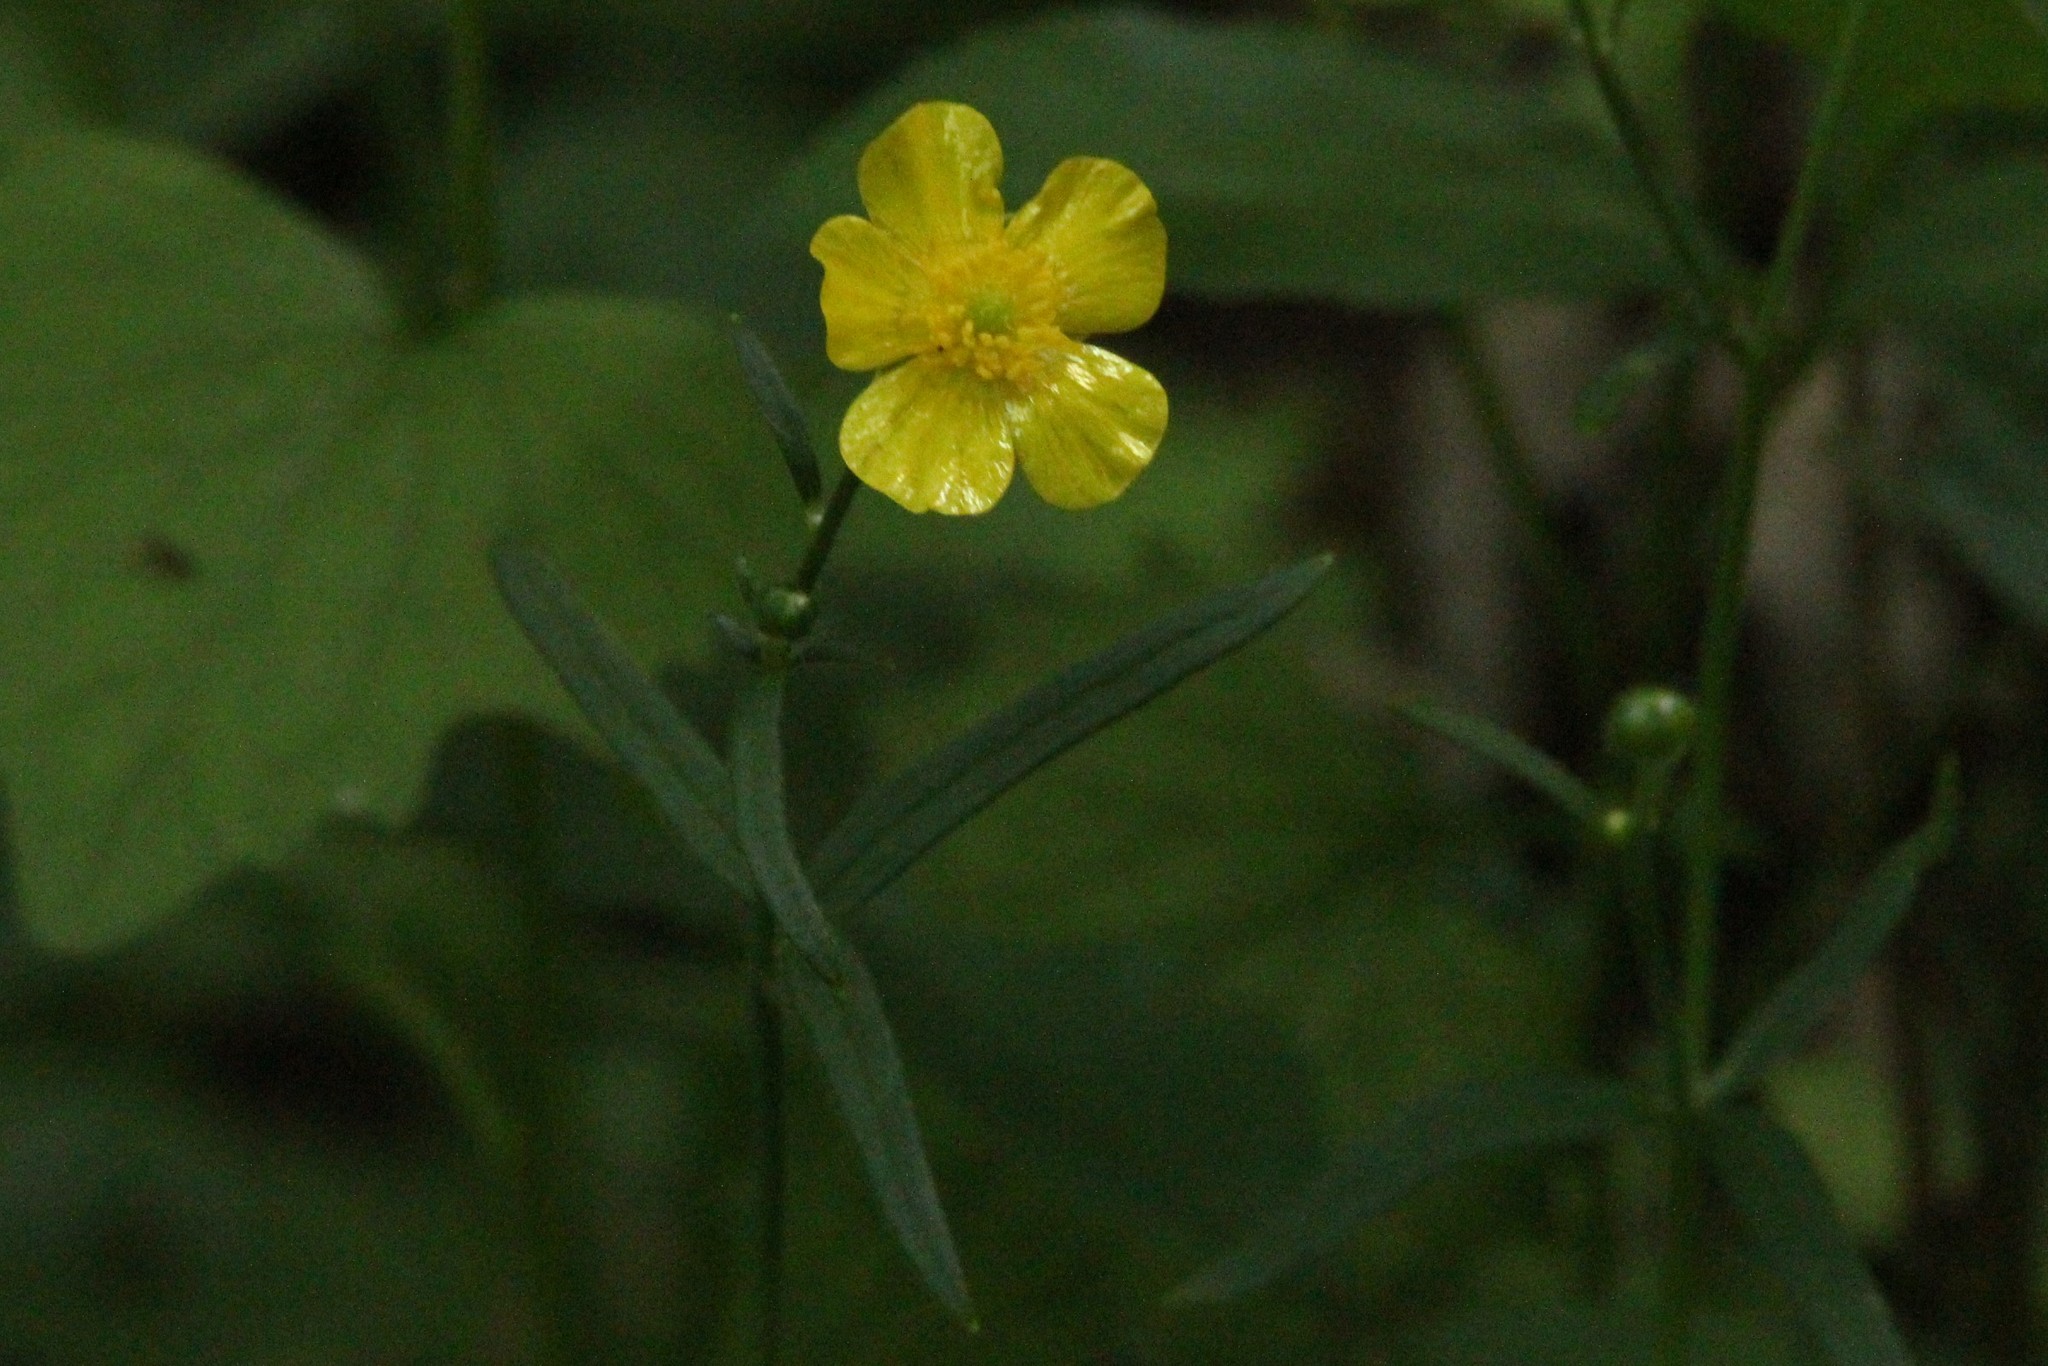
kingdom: Plantae
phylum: Tracheophyta
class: Magnoliopsida
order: Ranunculales
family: Ranunculaceae
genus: Ranunculus
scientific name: Ranunculus acris
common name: Meadow buttercup
